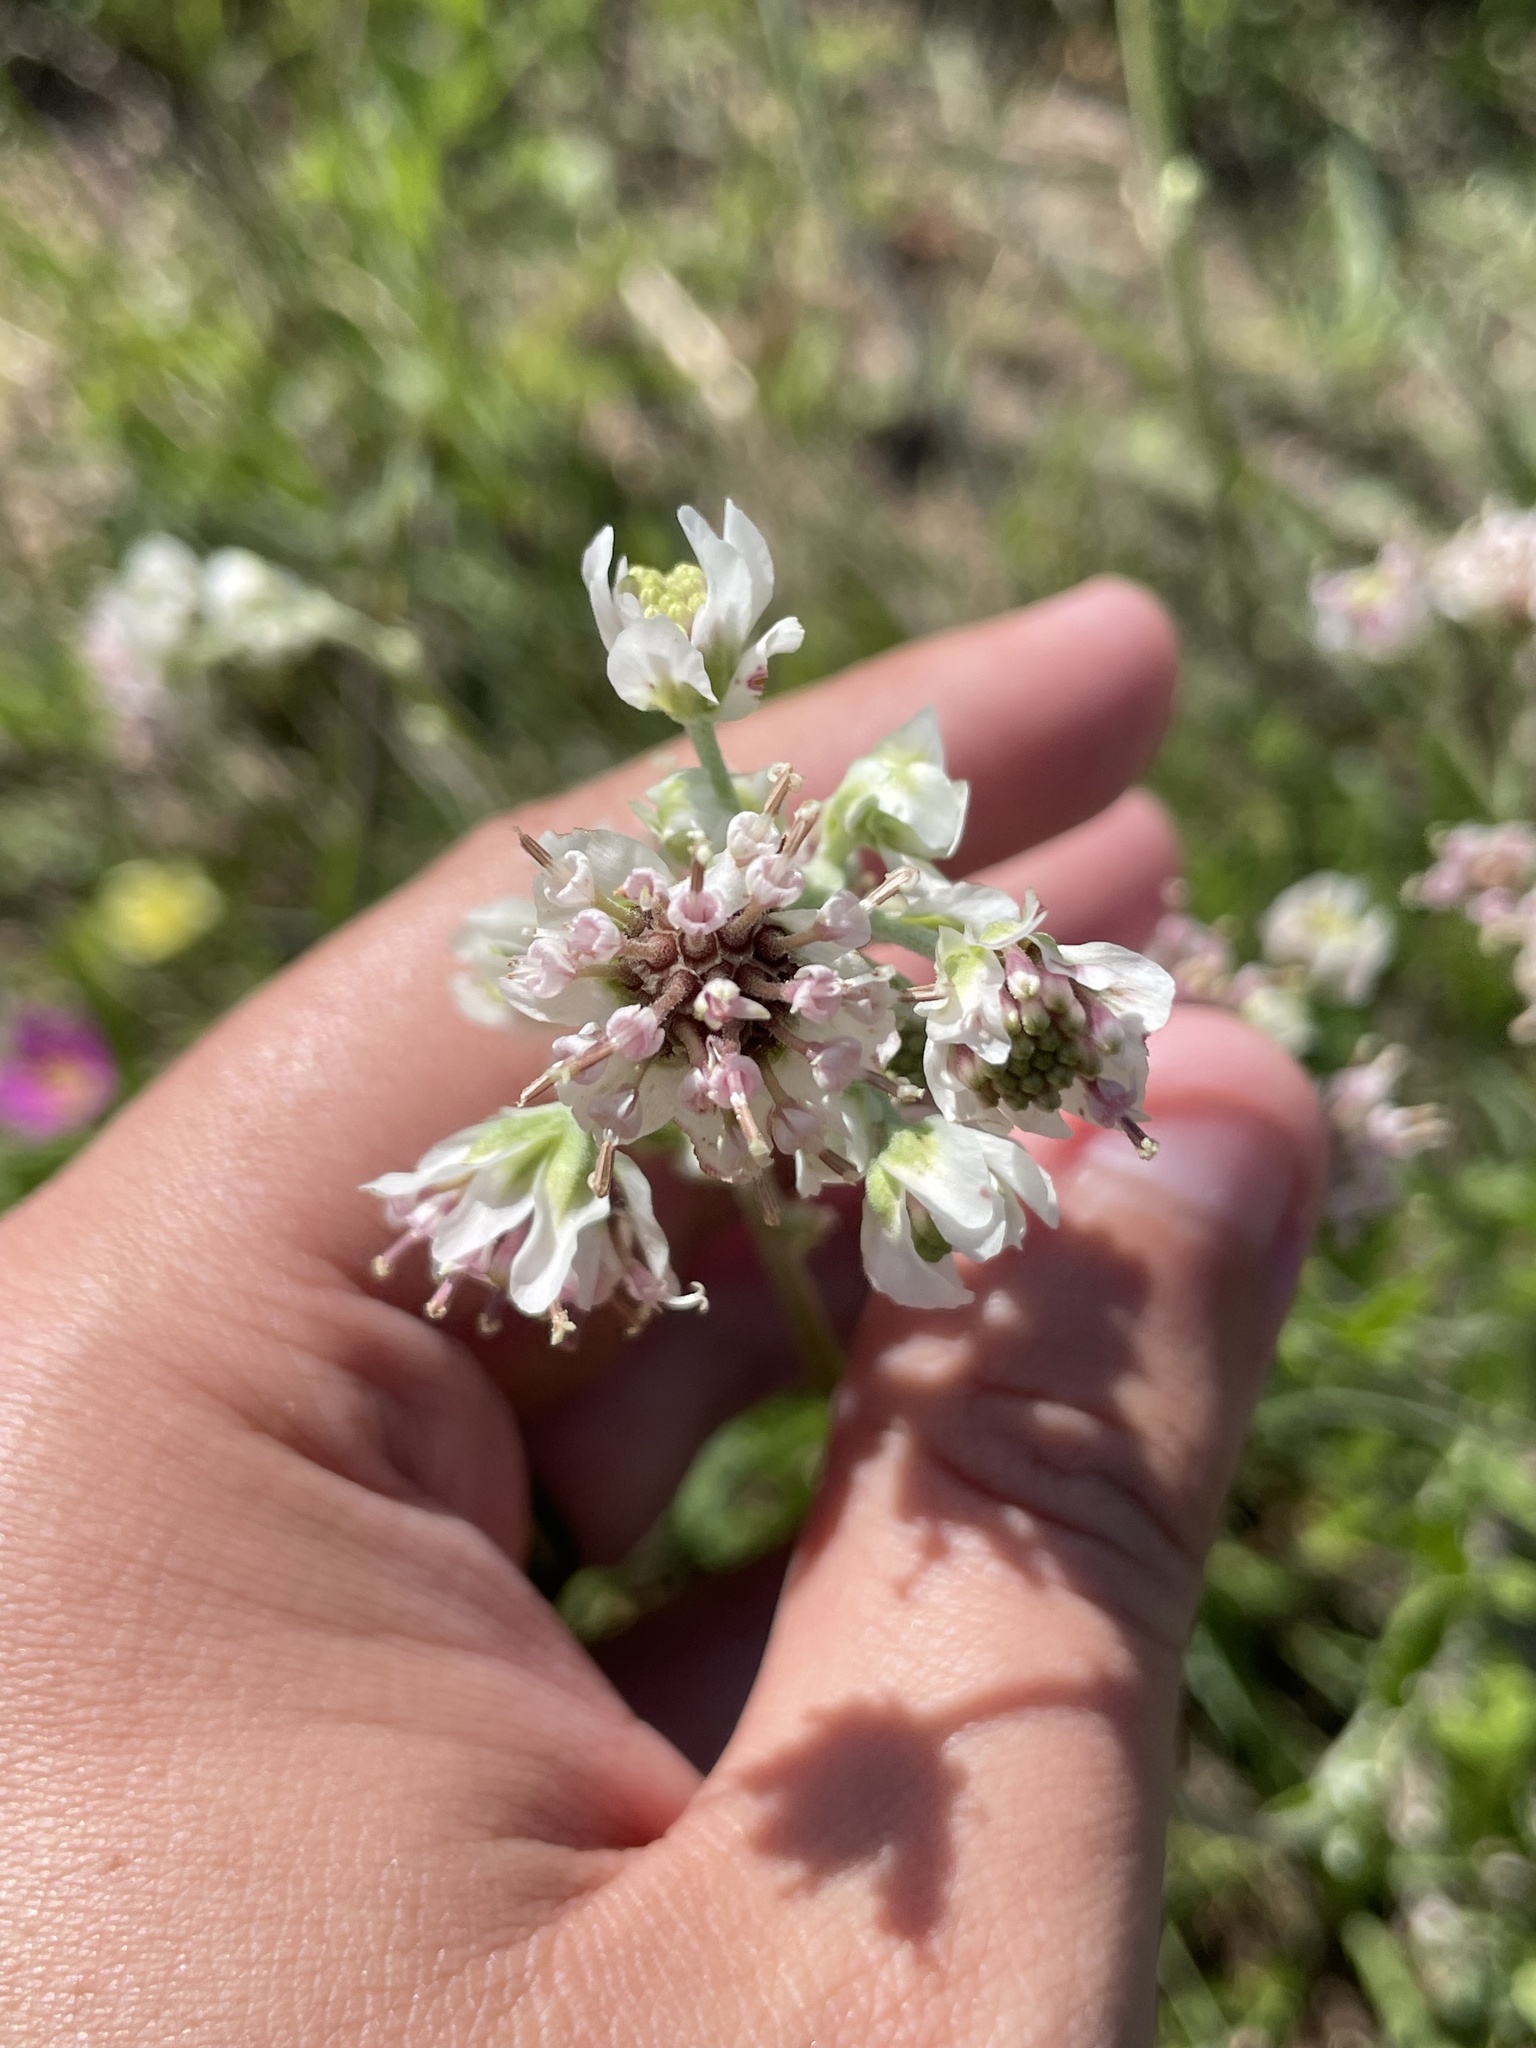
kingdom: Plantae
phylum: Tracheophyta
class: Magnoliopsida
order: Asterales
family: Asteraceae
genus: Hymenopappus
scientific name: Hymenopappus artemisiifolius
